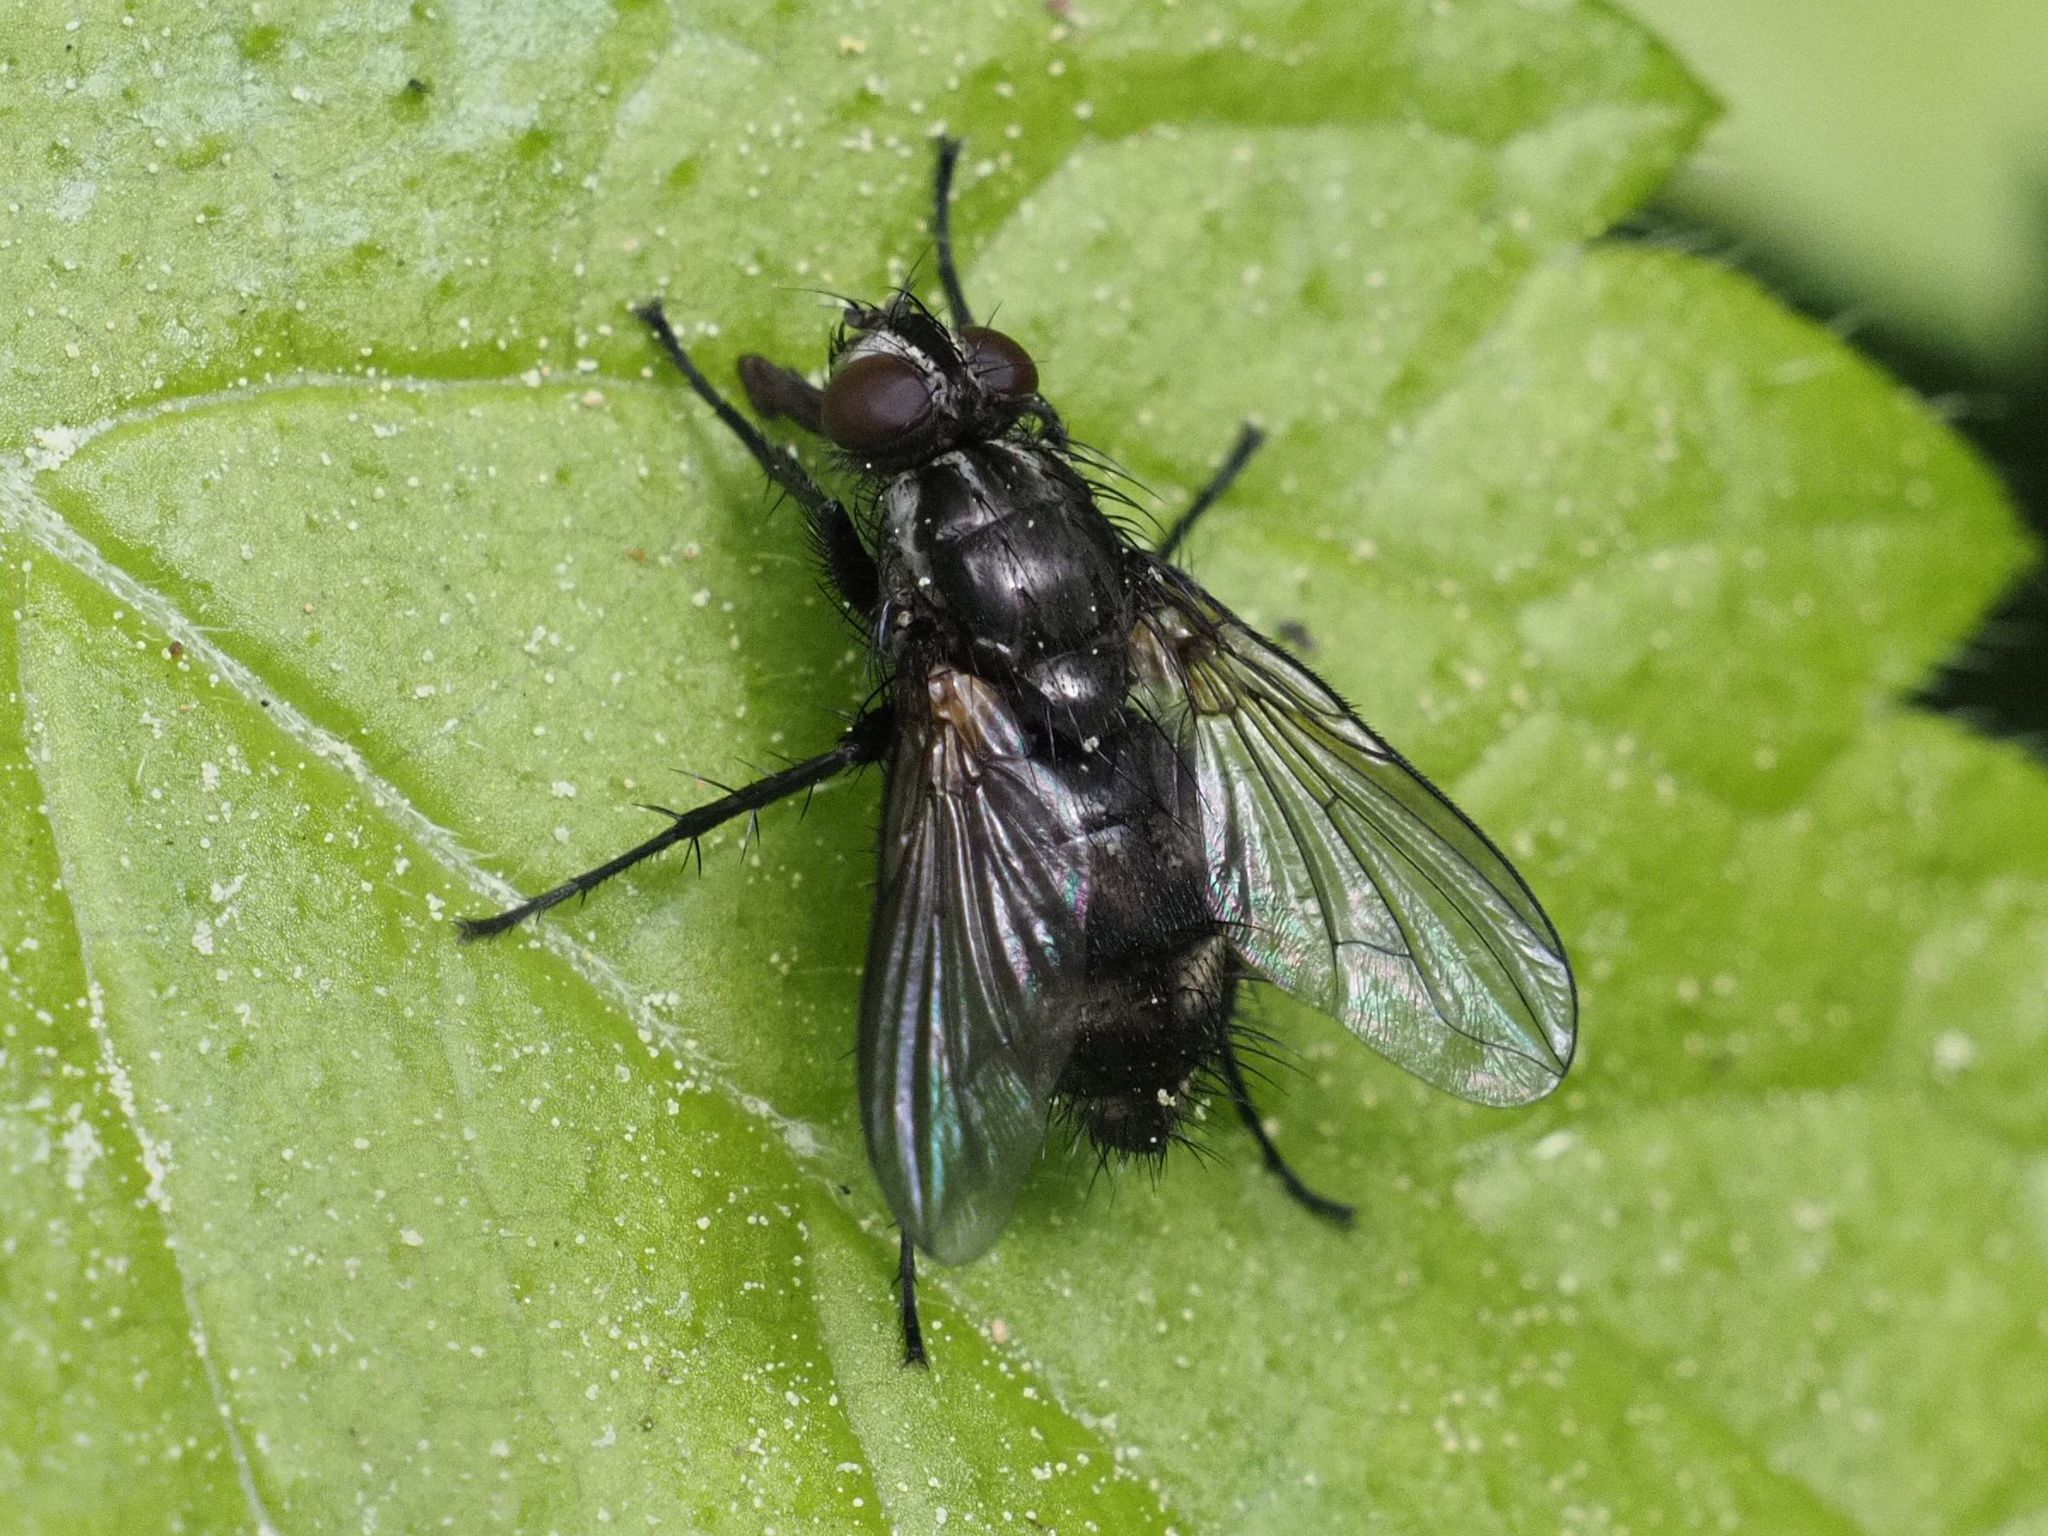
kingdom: Animalia
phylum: Arthropoda
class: Insecta
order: Diptera
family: Calliphoridae
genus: Rhinomorinia
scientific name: Rhinomorinia sarcophagina
